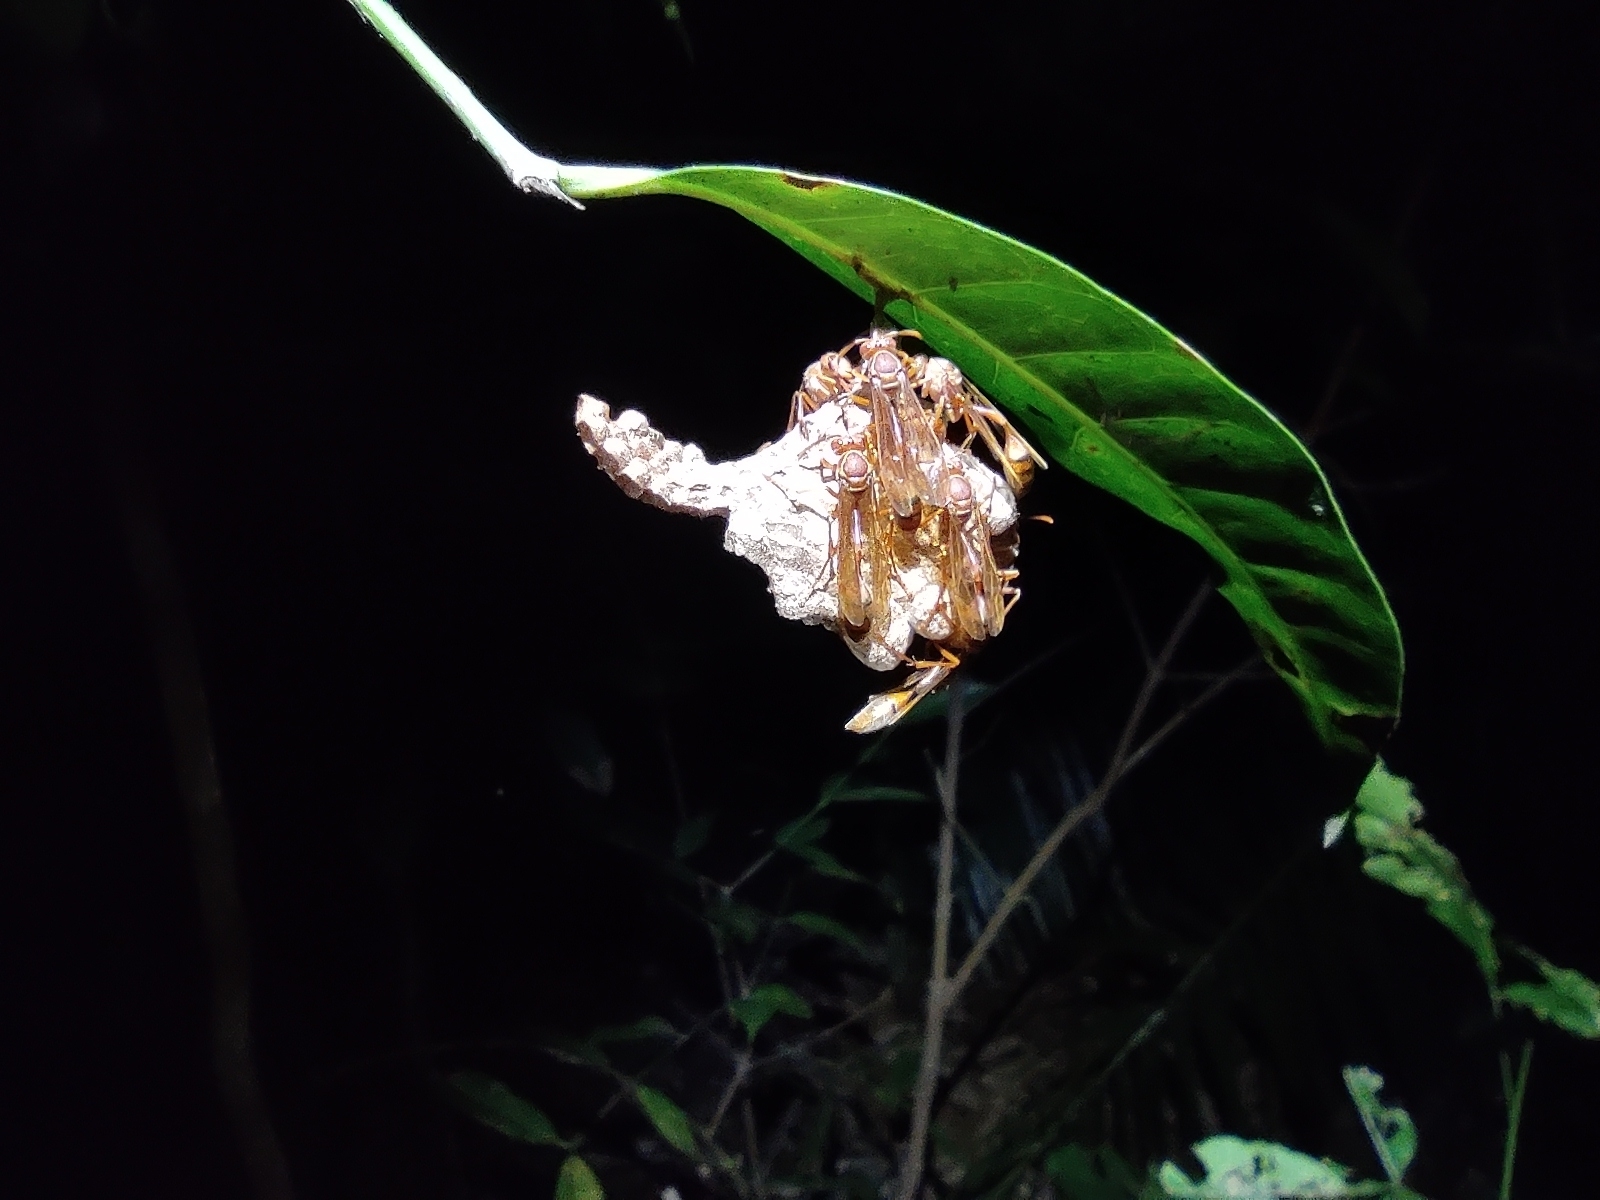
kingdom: Animalia
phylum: Arthropoda
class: Insecta
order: Hymenoptera
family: Eumenidae
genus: Belonogaster
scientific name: Belonogaster madecassa
